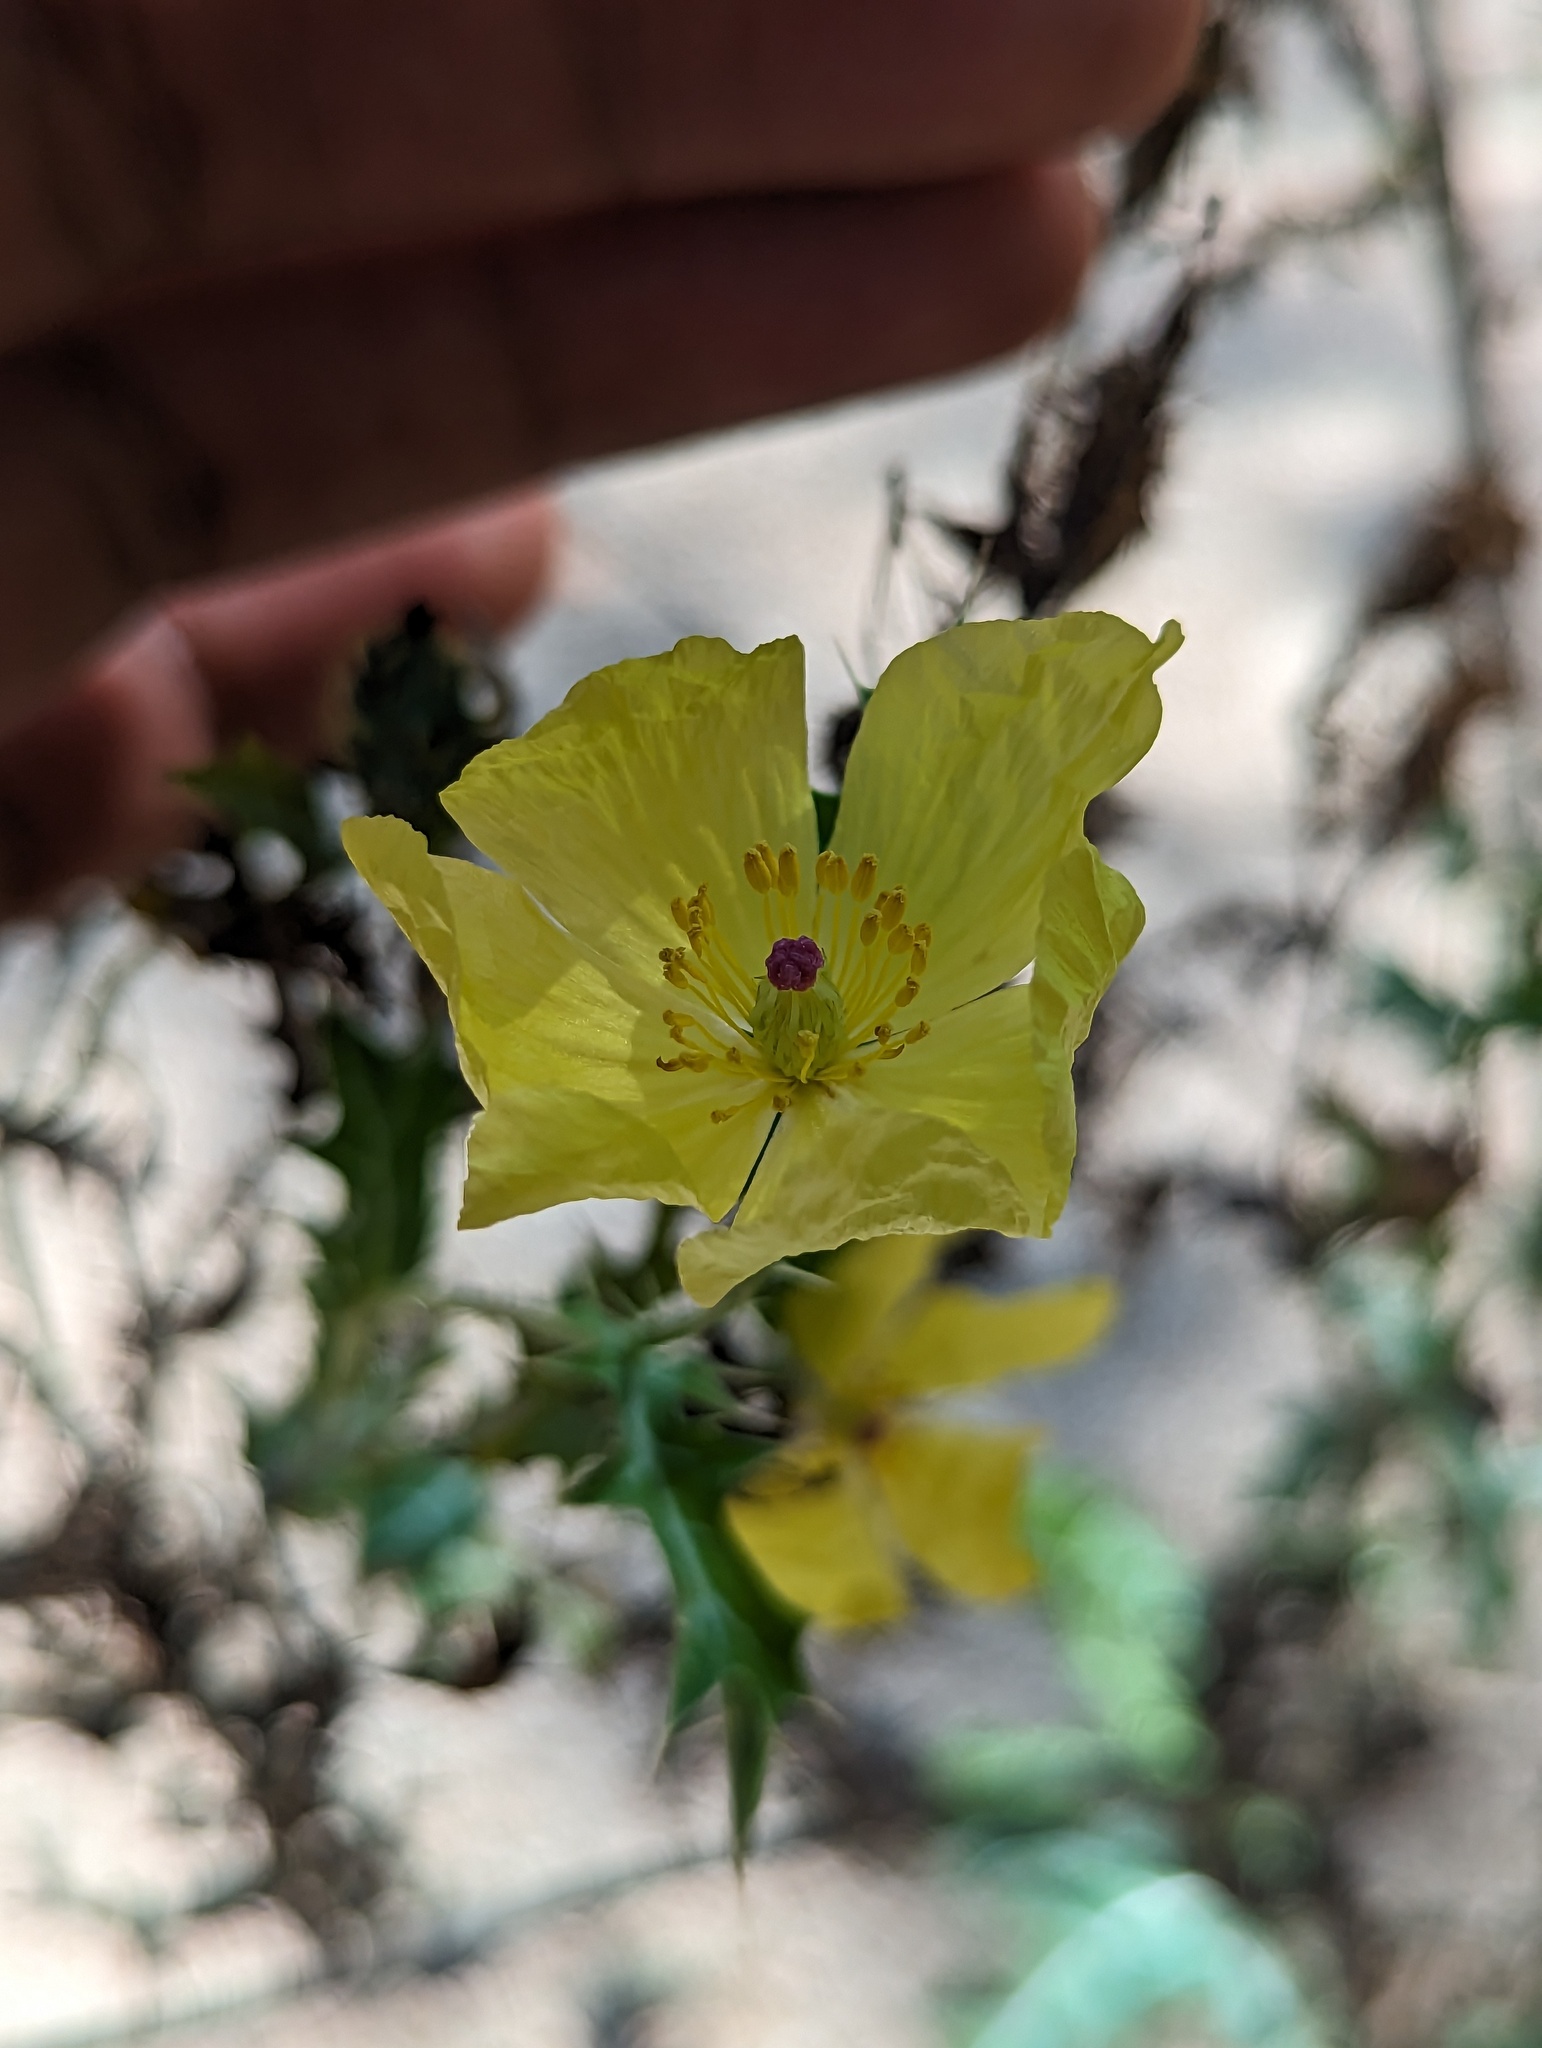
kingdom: Plantae
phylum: Tracheophyta
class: Magnoliopsida
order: Ranunculales
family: Papaveraceae
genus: Argemone
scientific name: Argemone mexicana
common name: Mexican poppy
